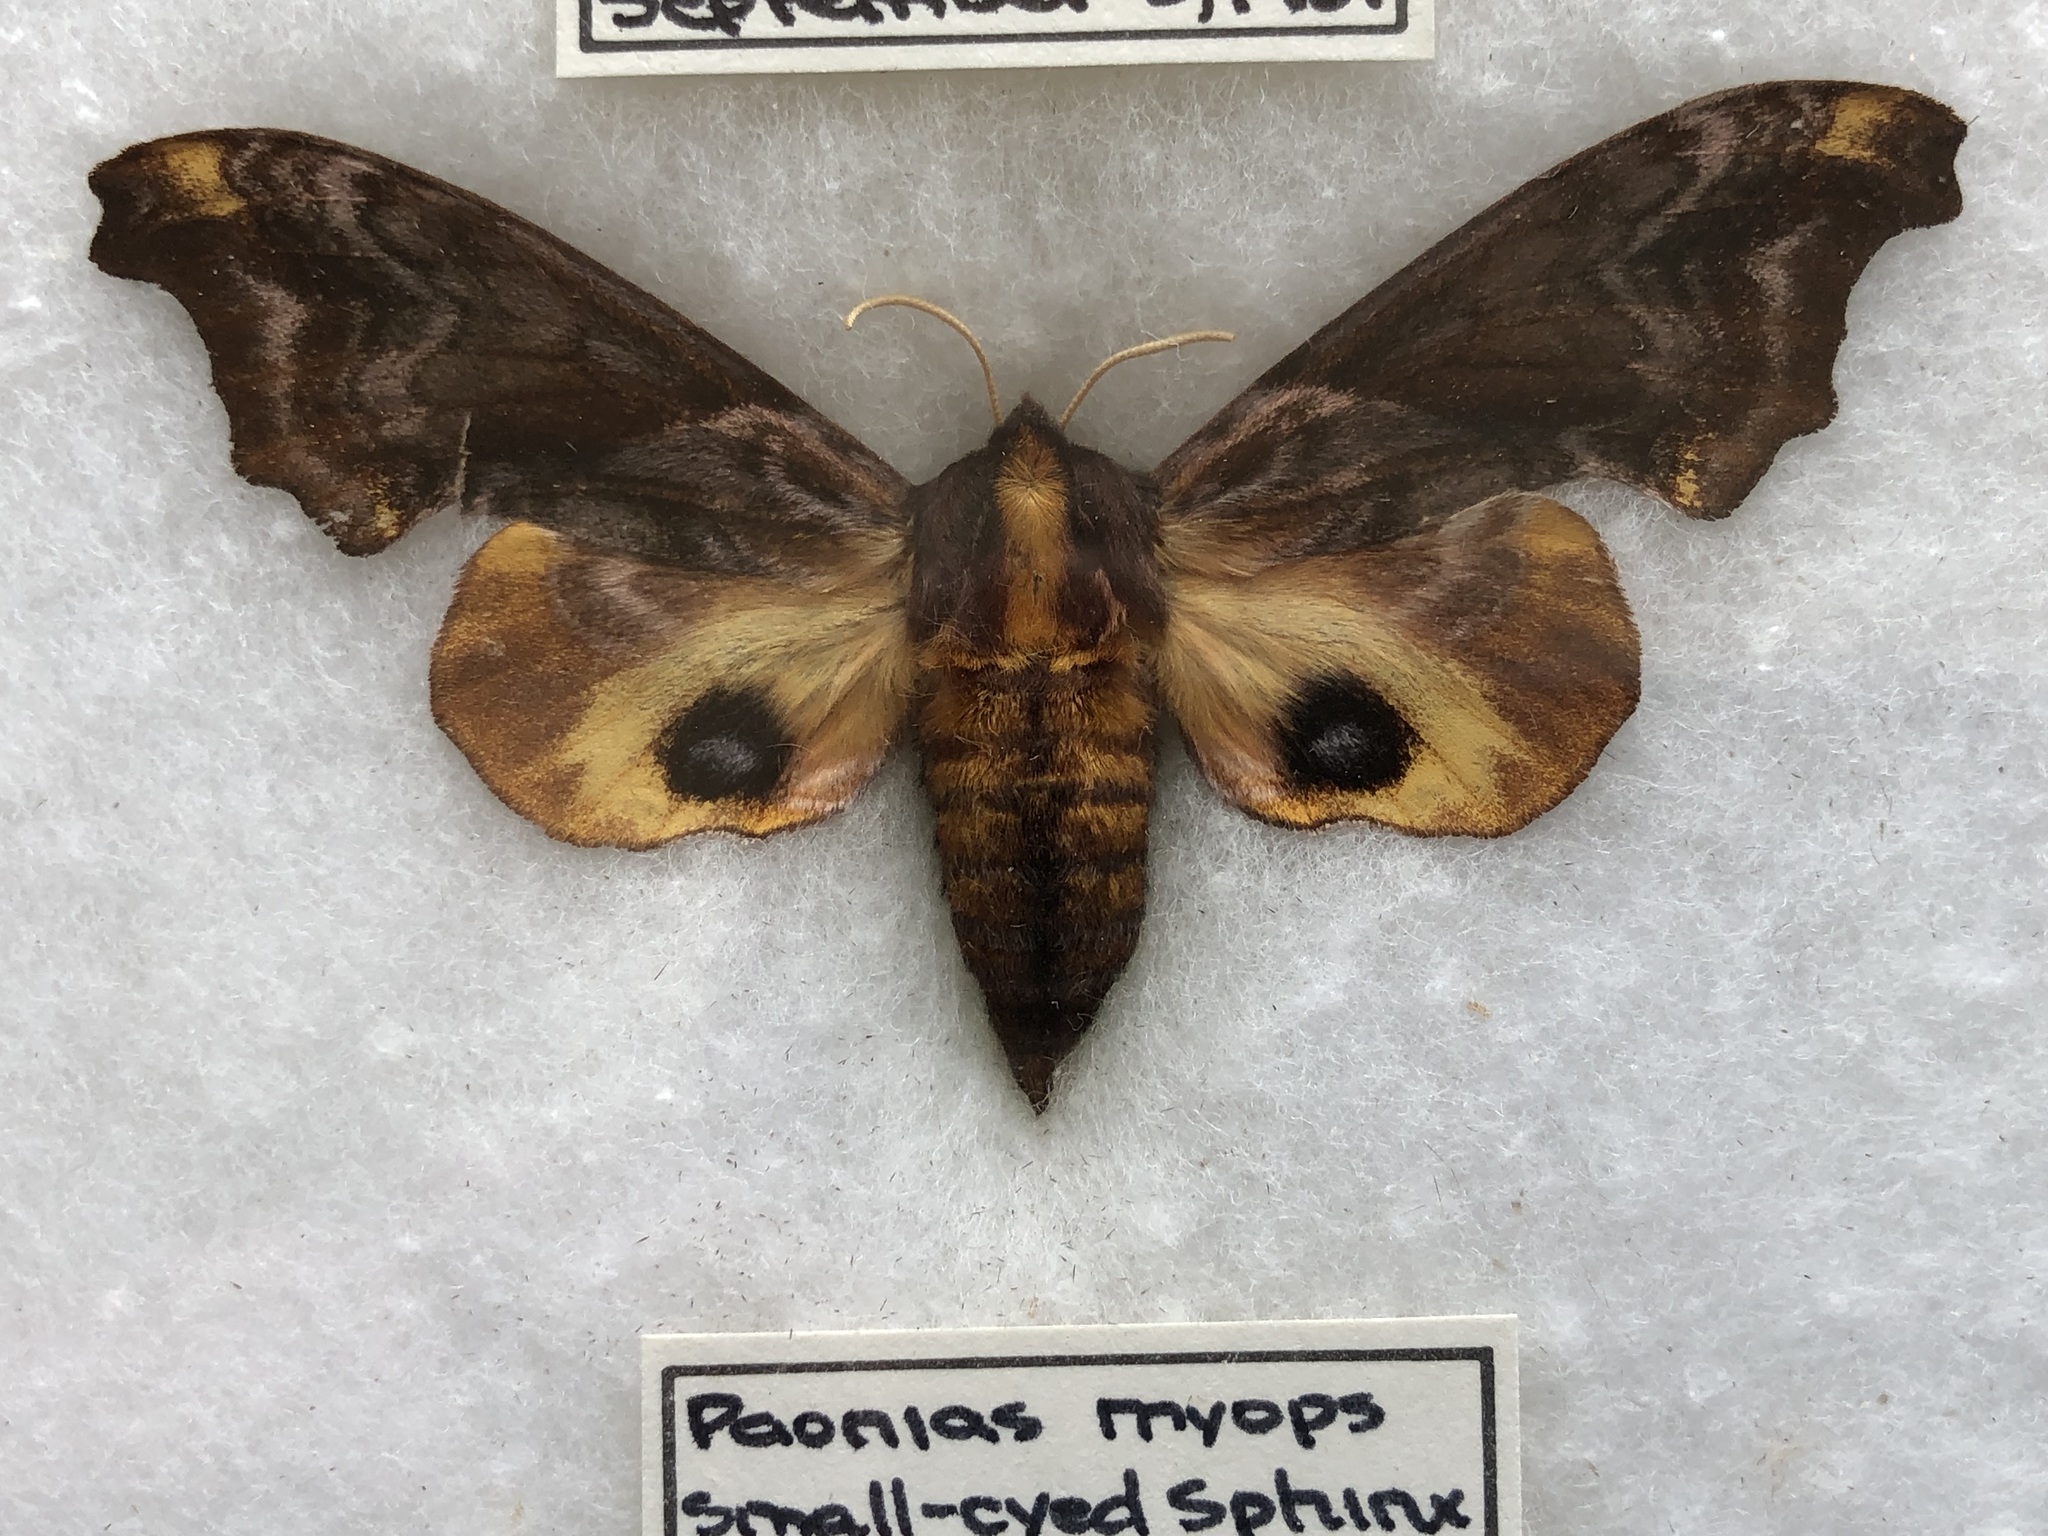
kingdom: Animalia
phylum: Arthropoda
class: Insecta
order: Lepidoptera
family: Sphingidae
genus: Paonias
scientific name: Paonias myops
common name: Small-eyed sphinx
